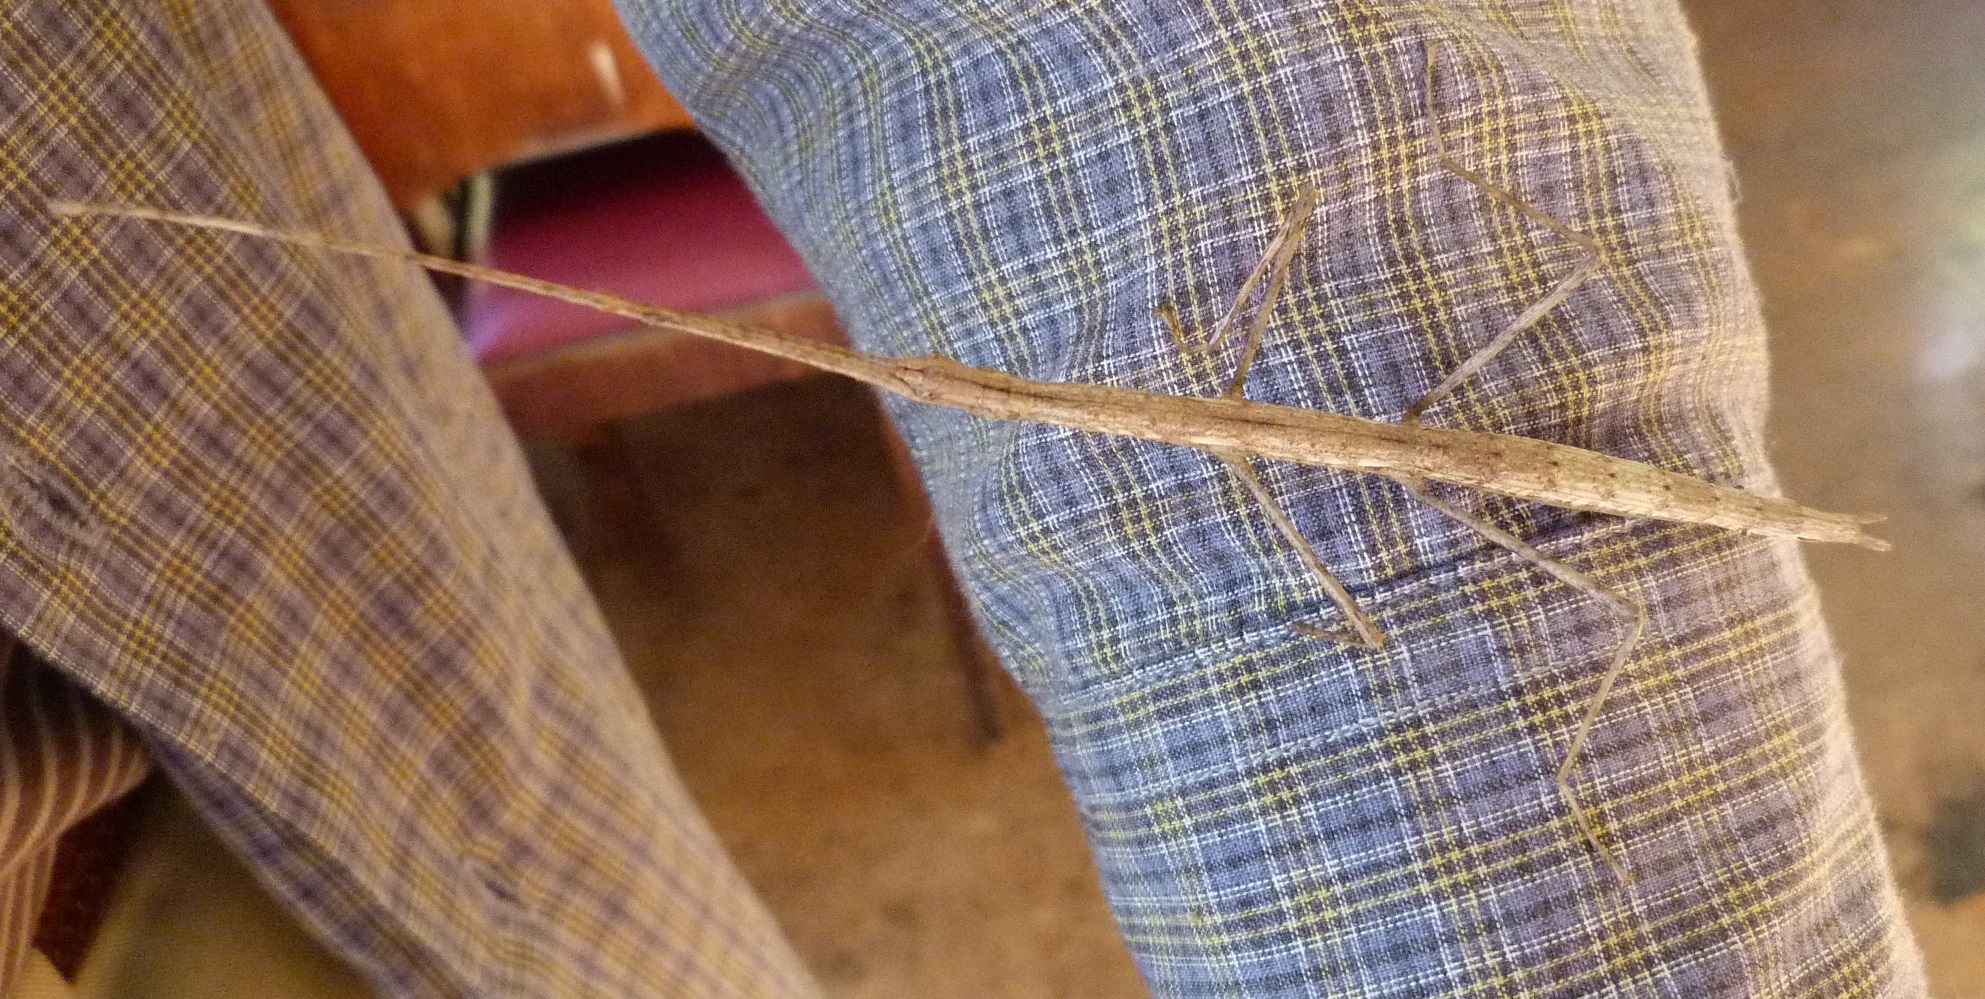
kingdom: Animalia
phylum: Arthropoda
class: Insecta
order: Phasmida
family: Phasmatidae
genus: Clitarchus
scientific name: Clitarchus hookeri
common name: Smooth stick insect
